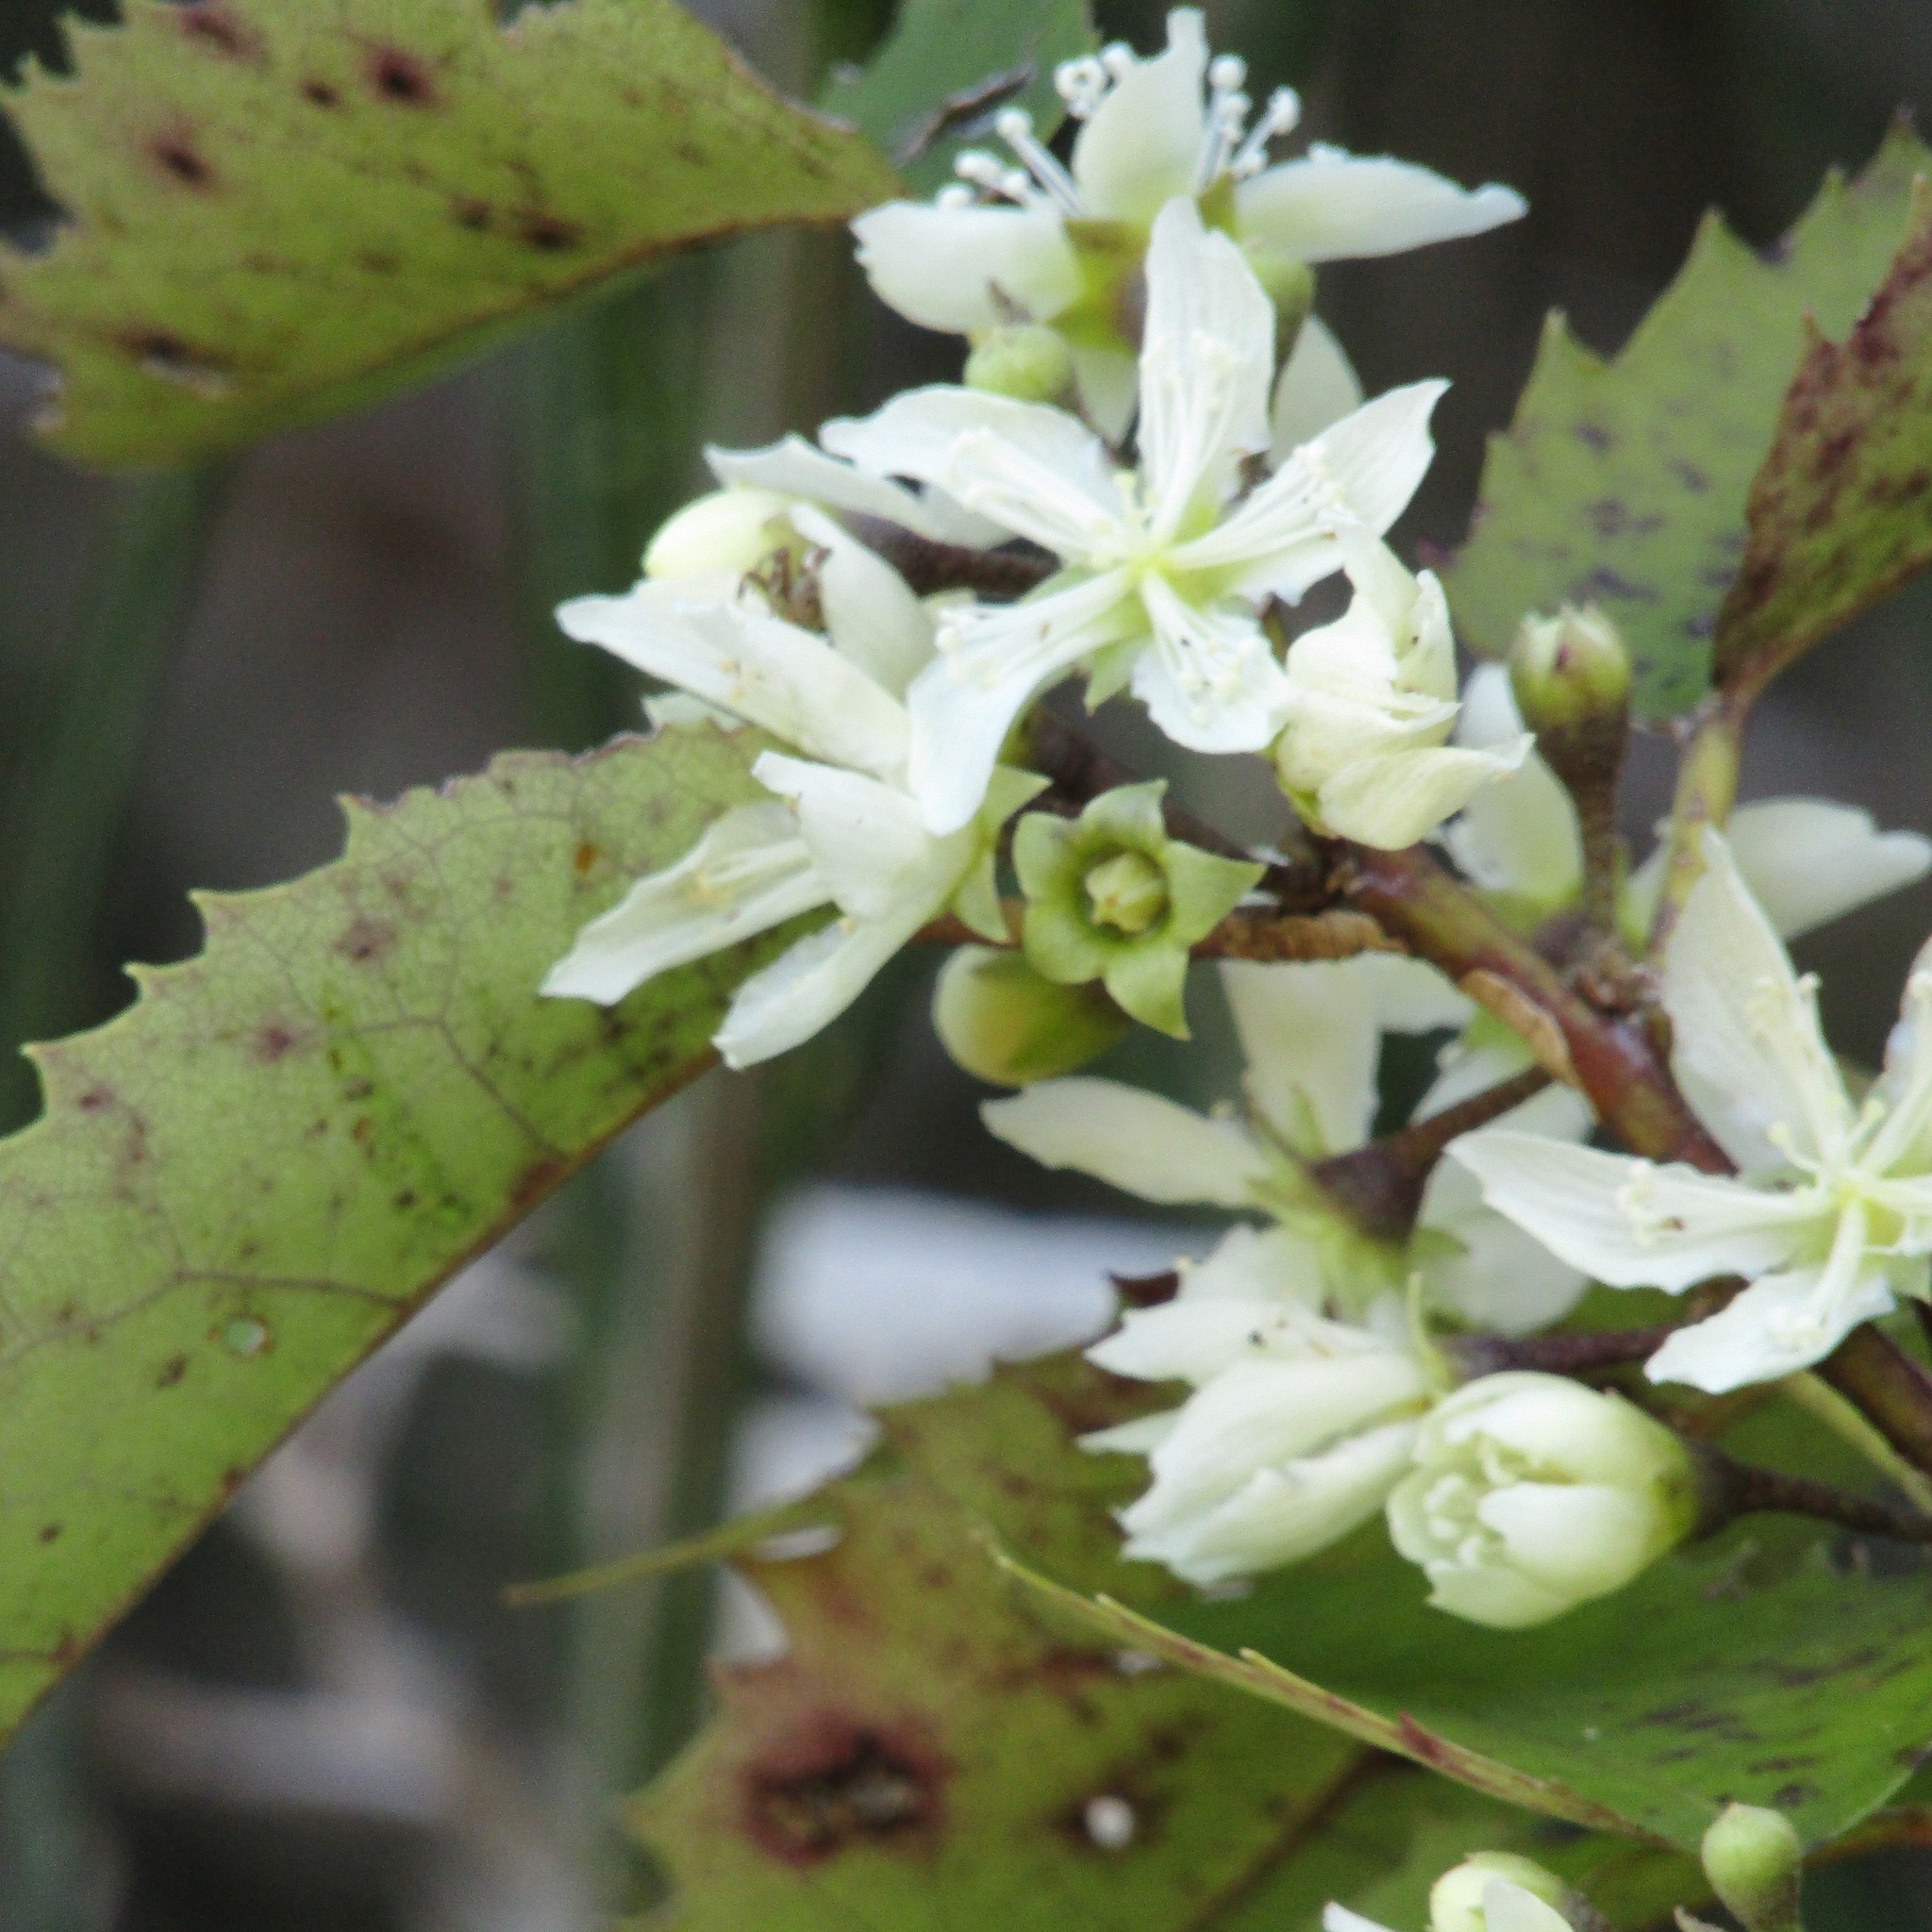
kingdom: Plantae
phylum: Tracheophyta
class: Magnoliopsida
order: Malvales
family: Malvaceae
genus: Hoheria
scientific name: Hoheria populnea
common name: Lacebark
